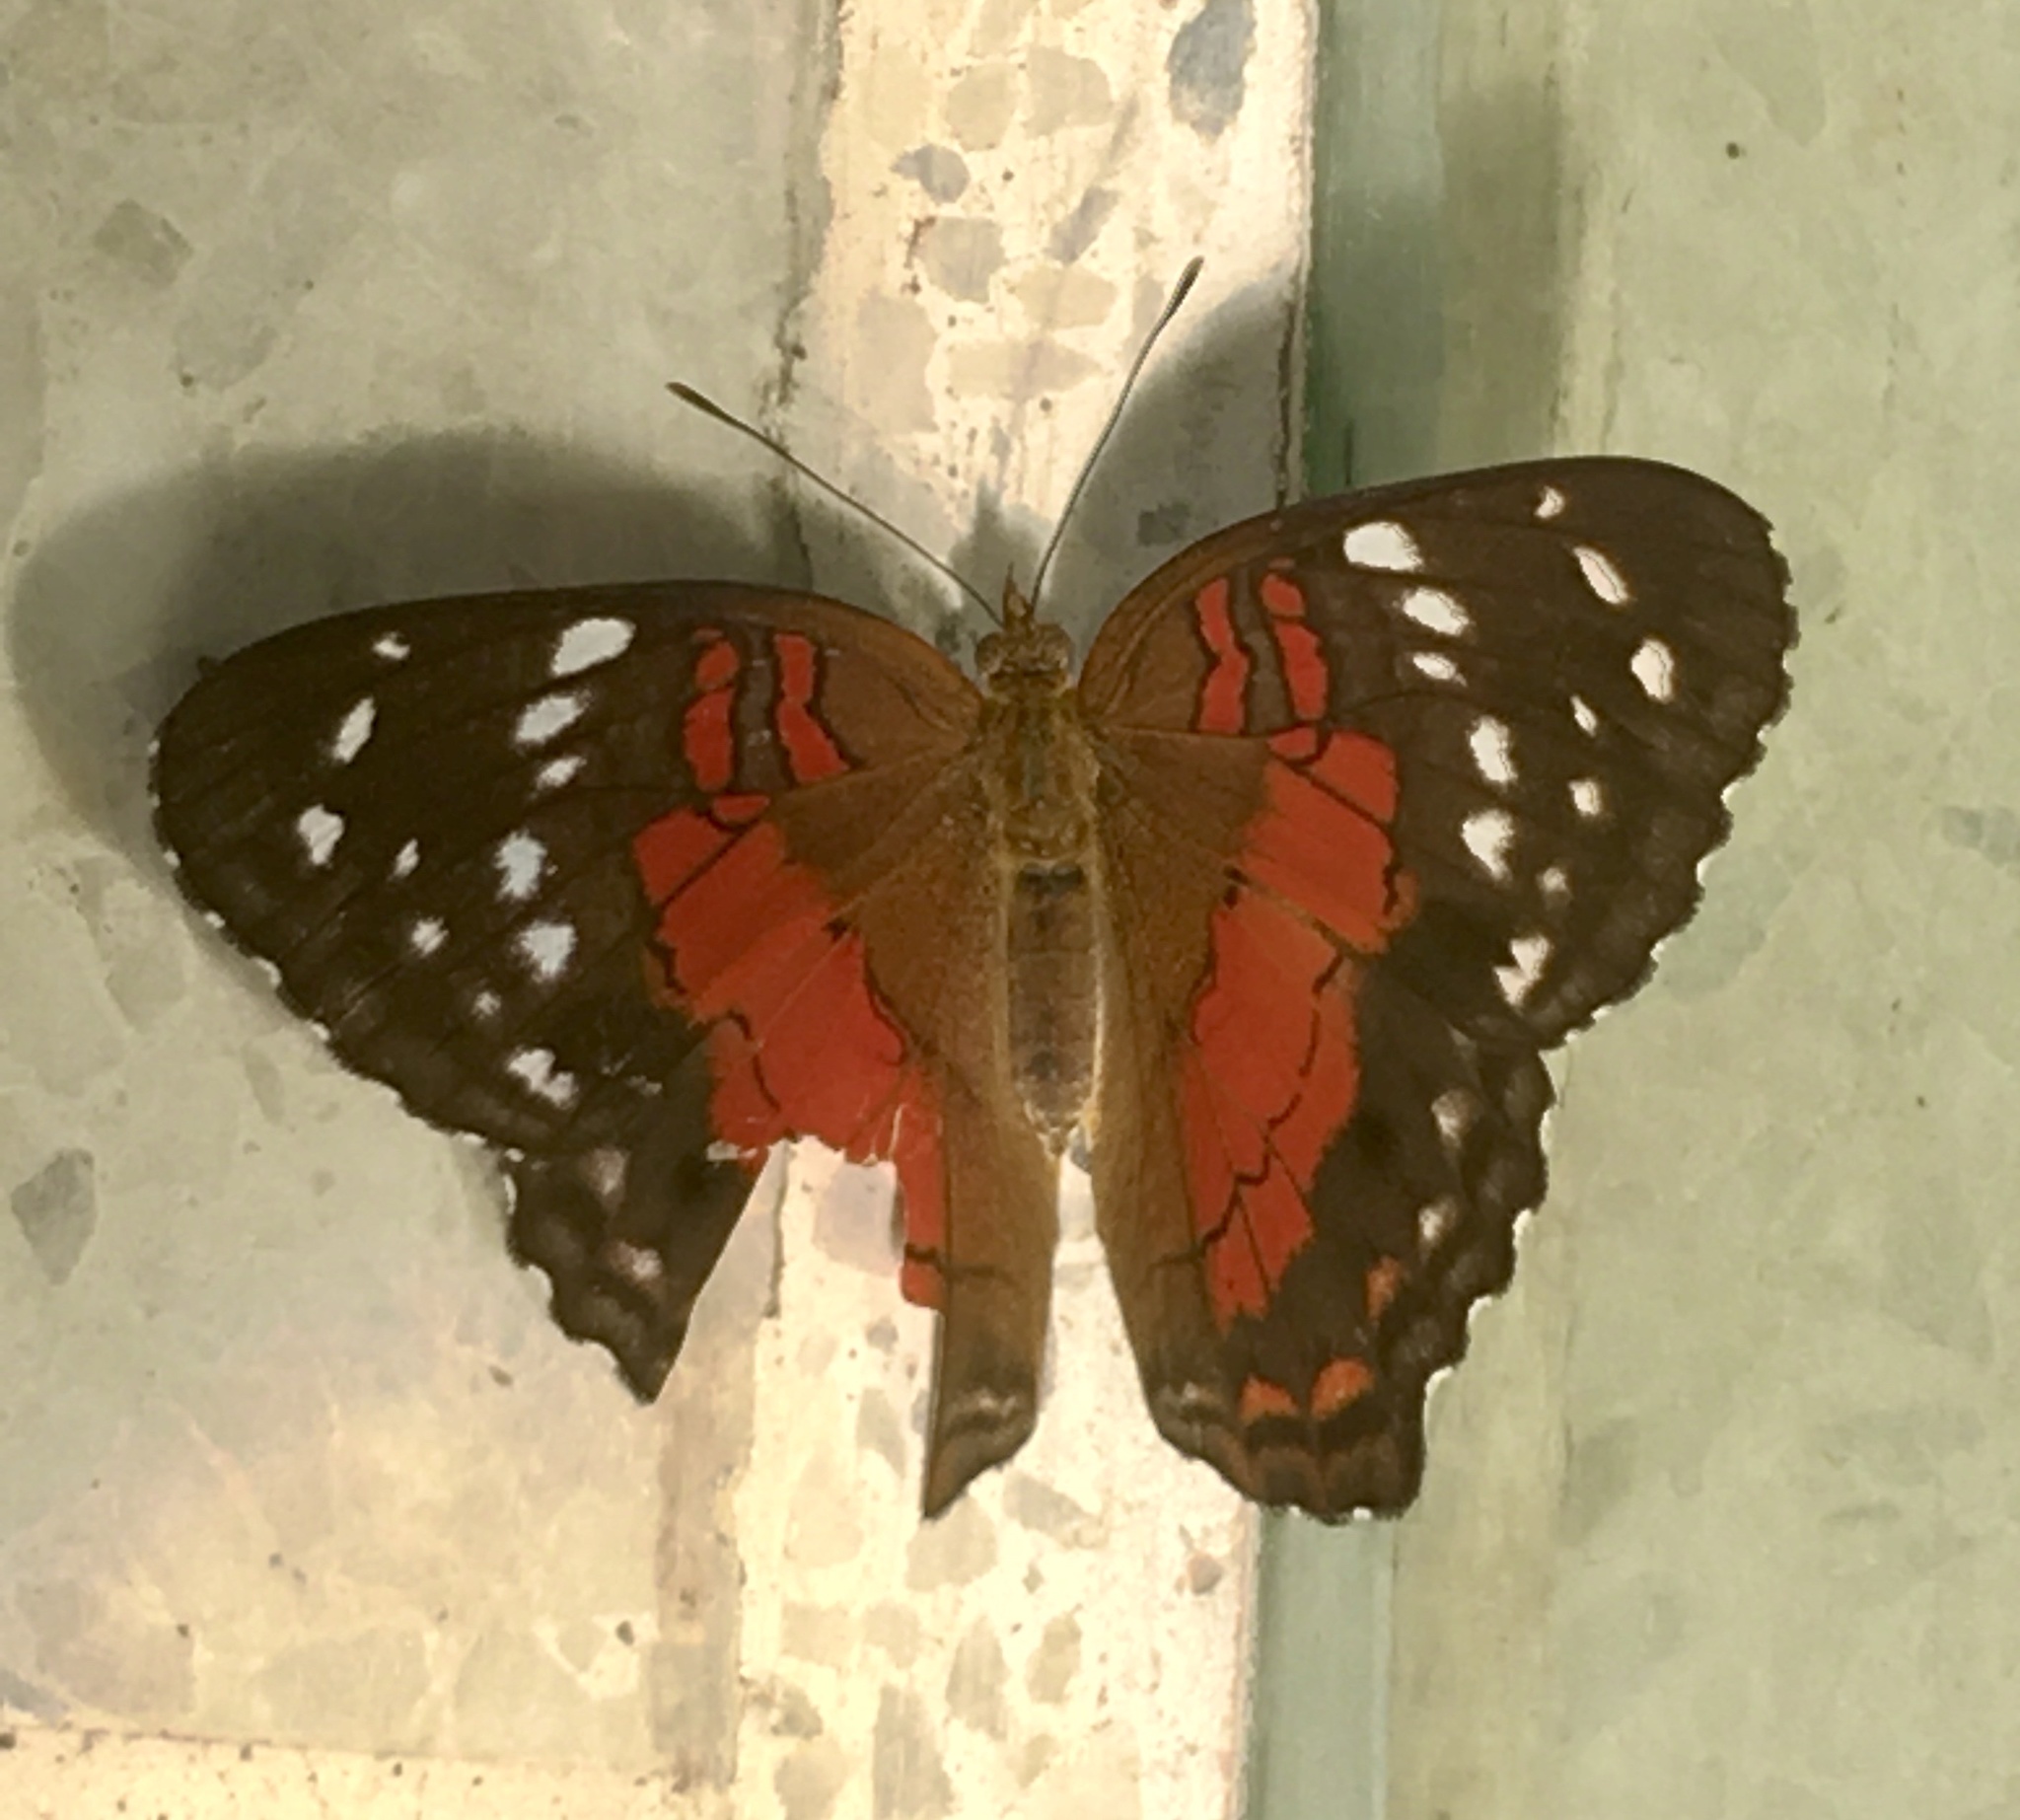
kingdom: Animalia
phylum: Arthropoda
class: Insecta
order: Lepidoptera
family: Nymphalidae
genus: Anartia
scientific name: Anartia amathea
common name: Red peacock
